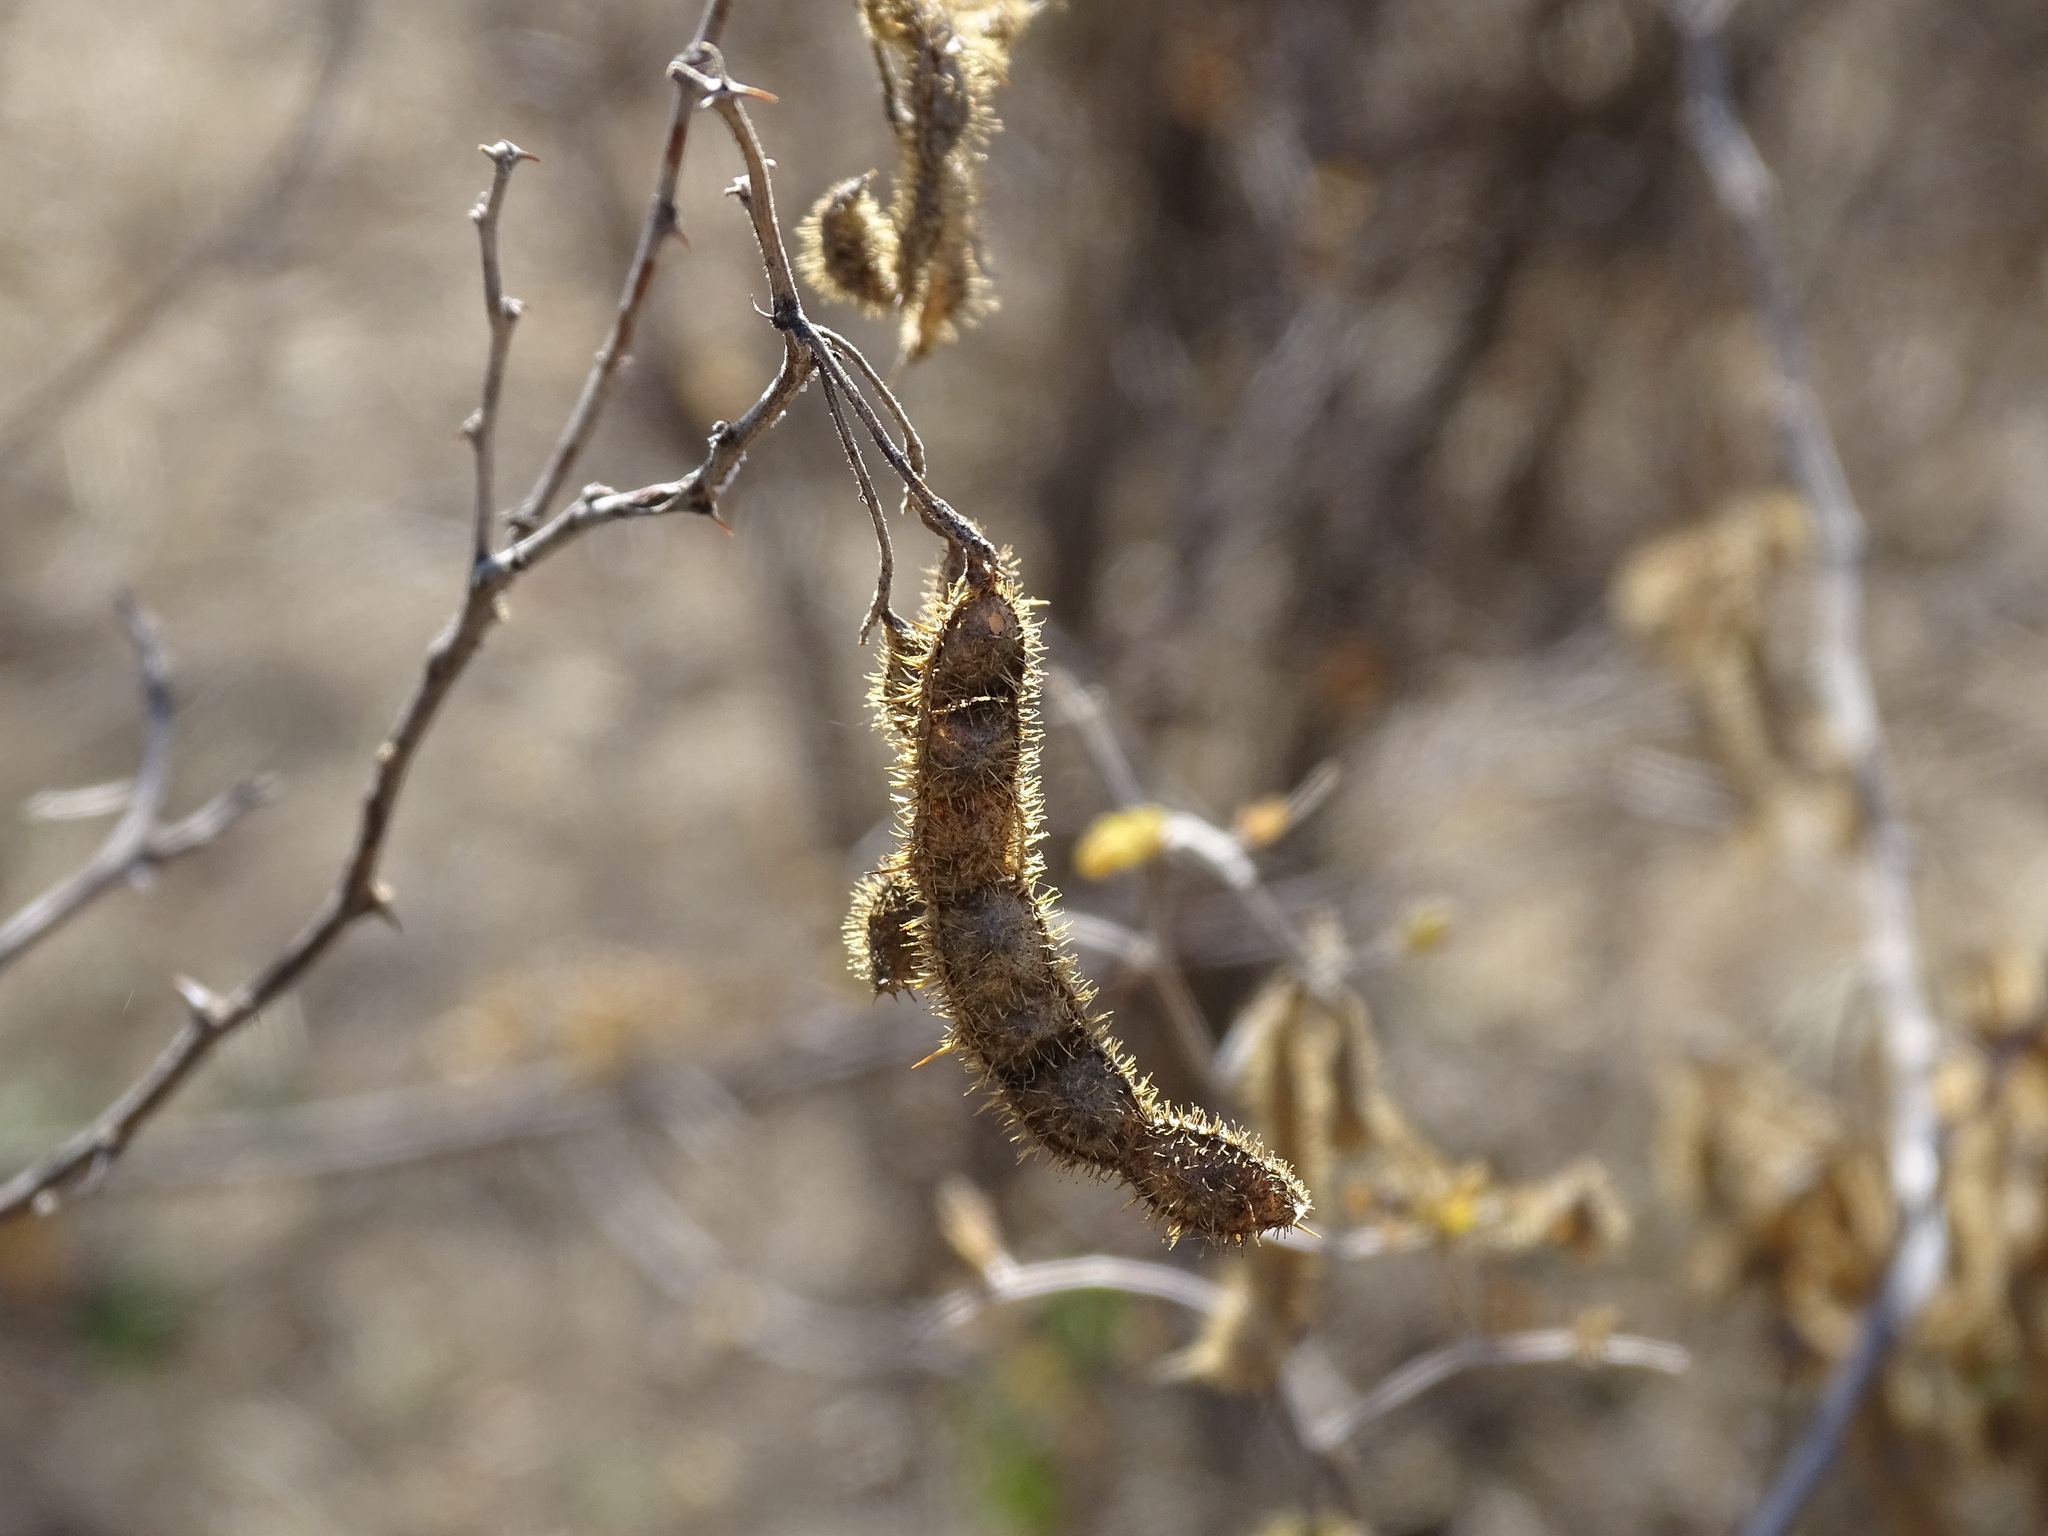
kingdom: Plantae
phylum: Tracheophyta
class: Magnoliopsida
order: Fabales
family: Fabaceae
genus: Mimosa
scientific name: Mimosa monancistra
